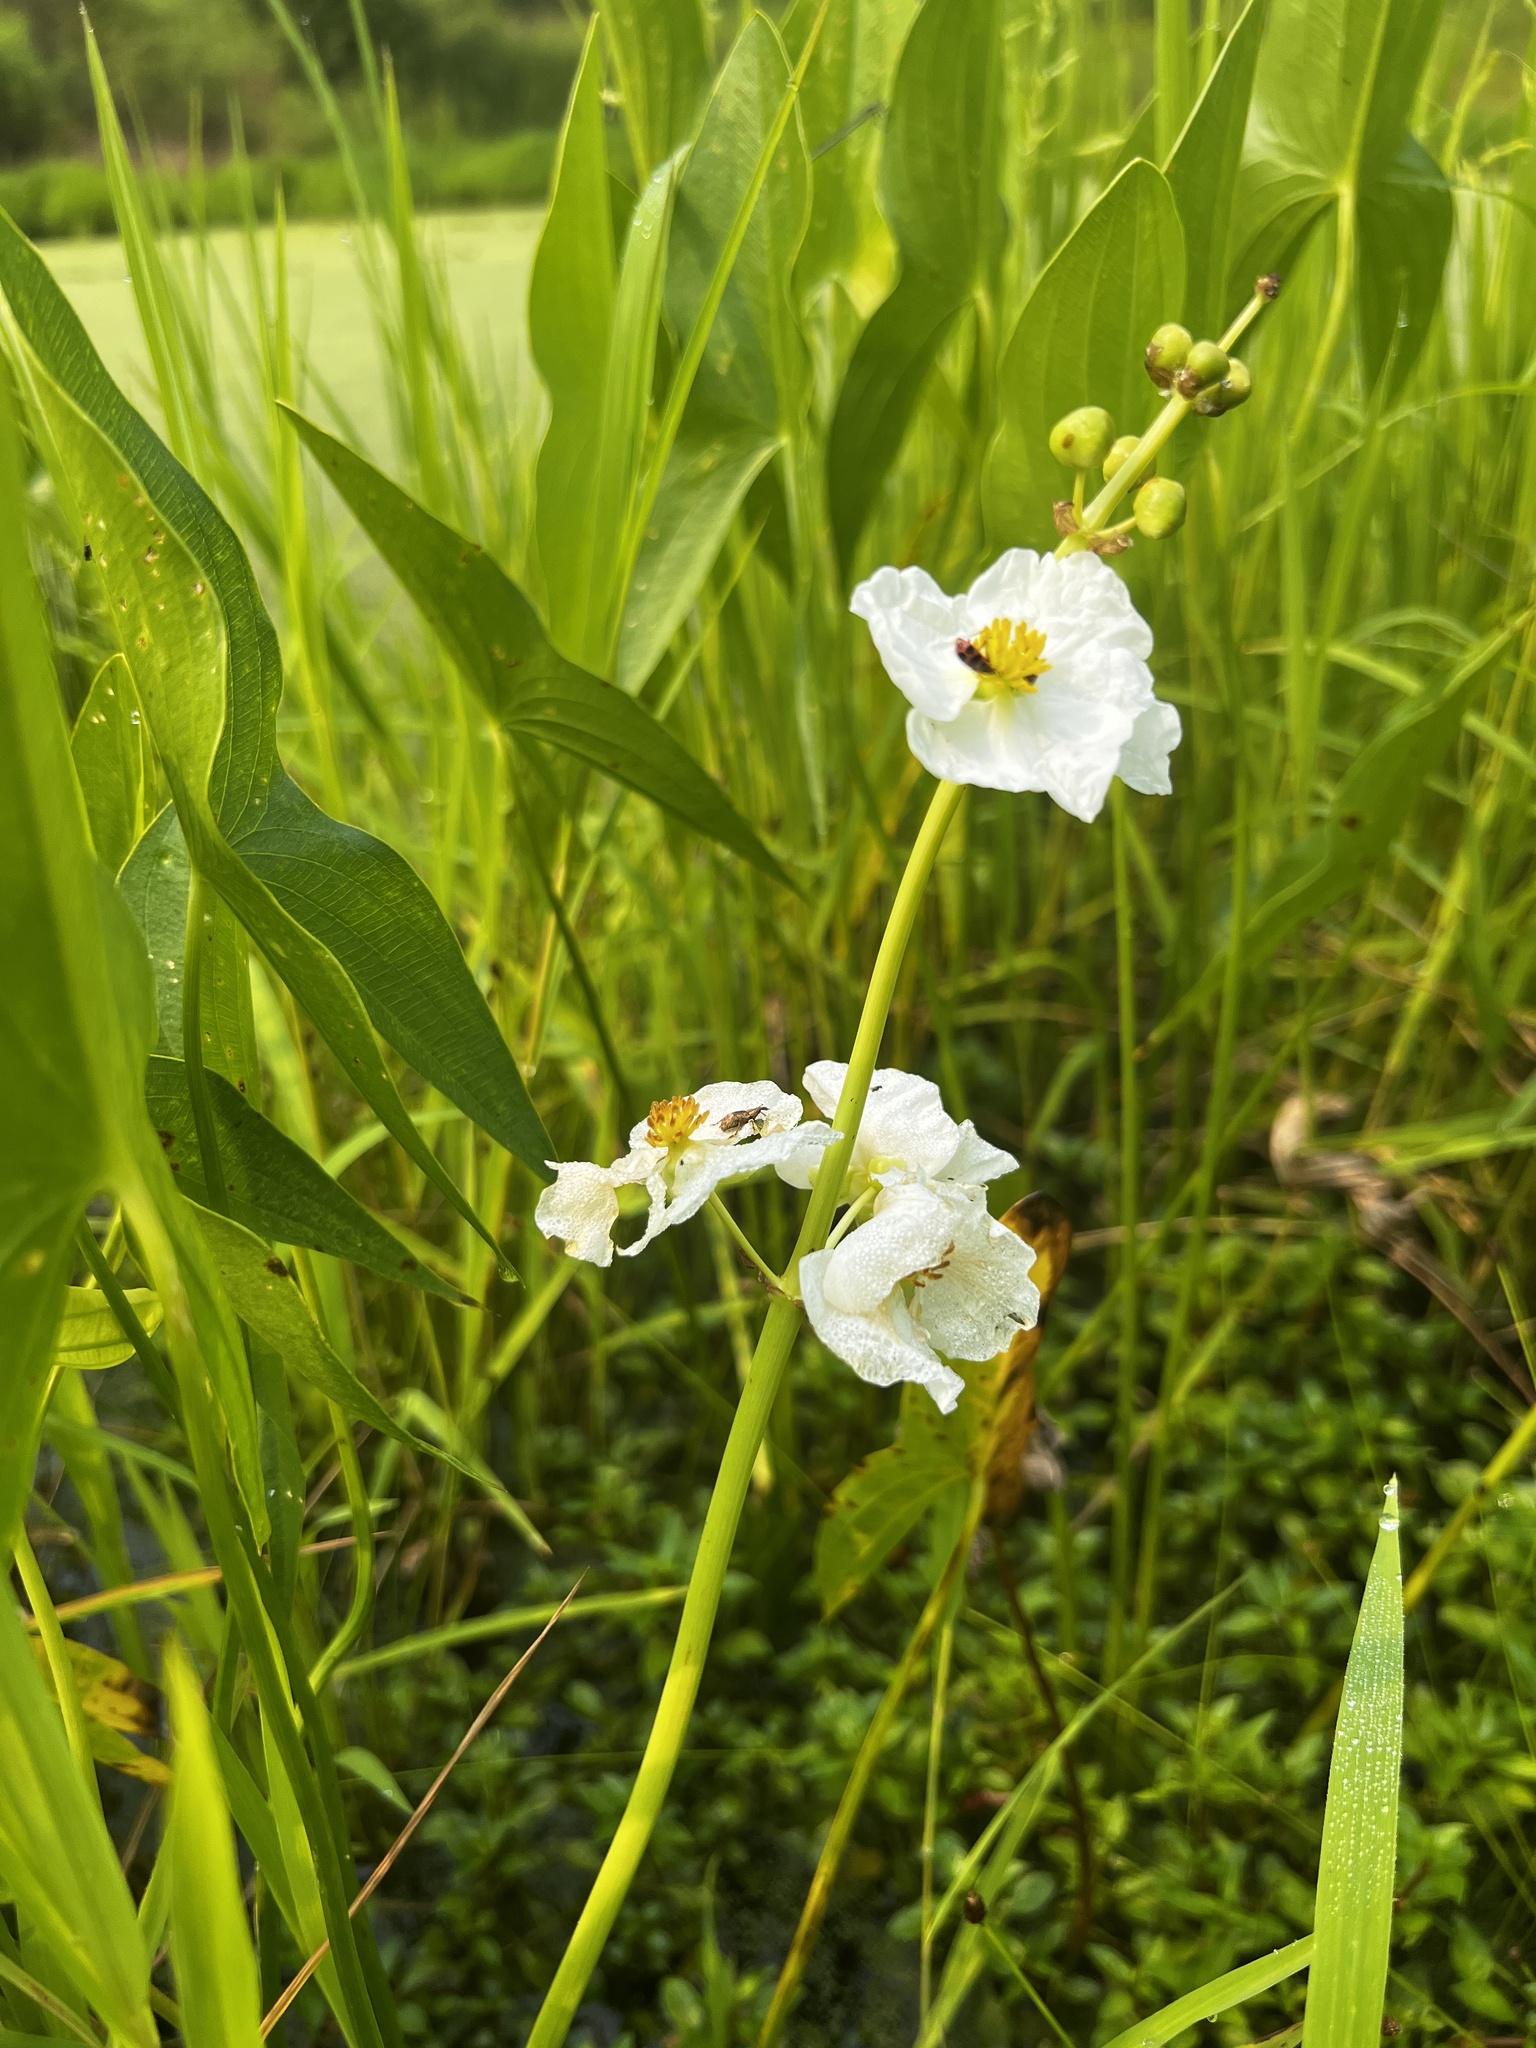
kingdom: Plantae
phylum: Tracheophyta
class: Liliopsida
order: Alismatales
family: Alismataceae
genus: Sagittaria
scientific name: Sagittaria latifolia
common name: Duck-potato
